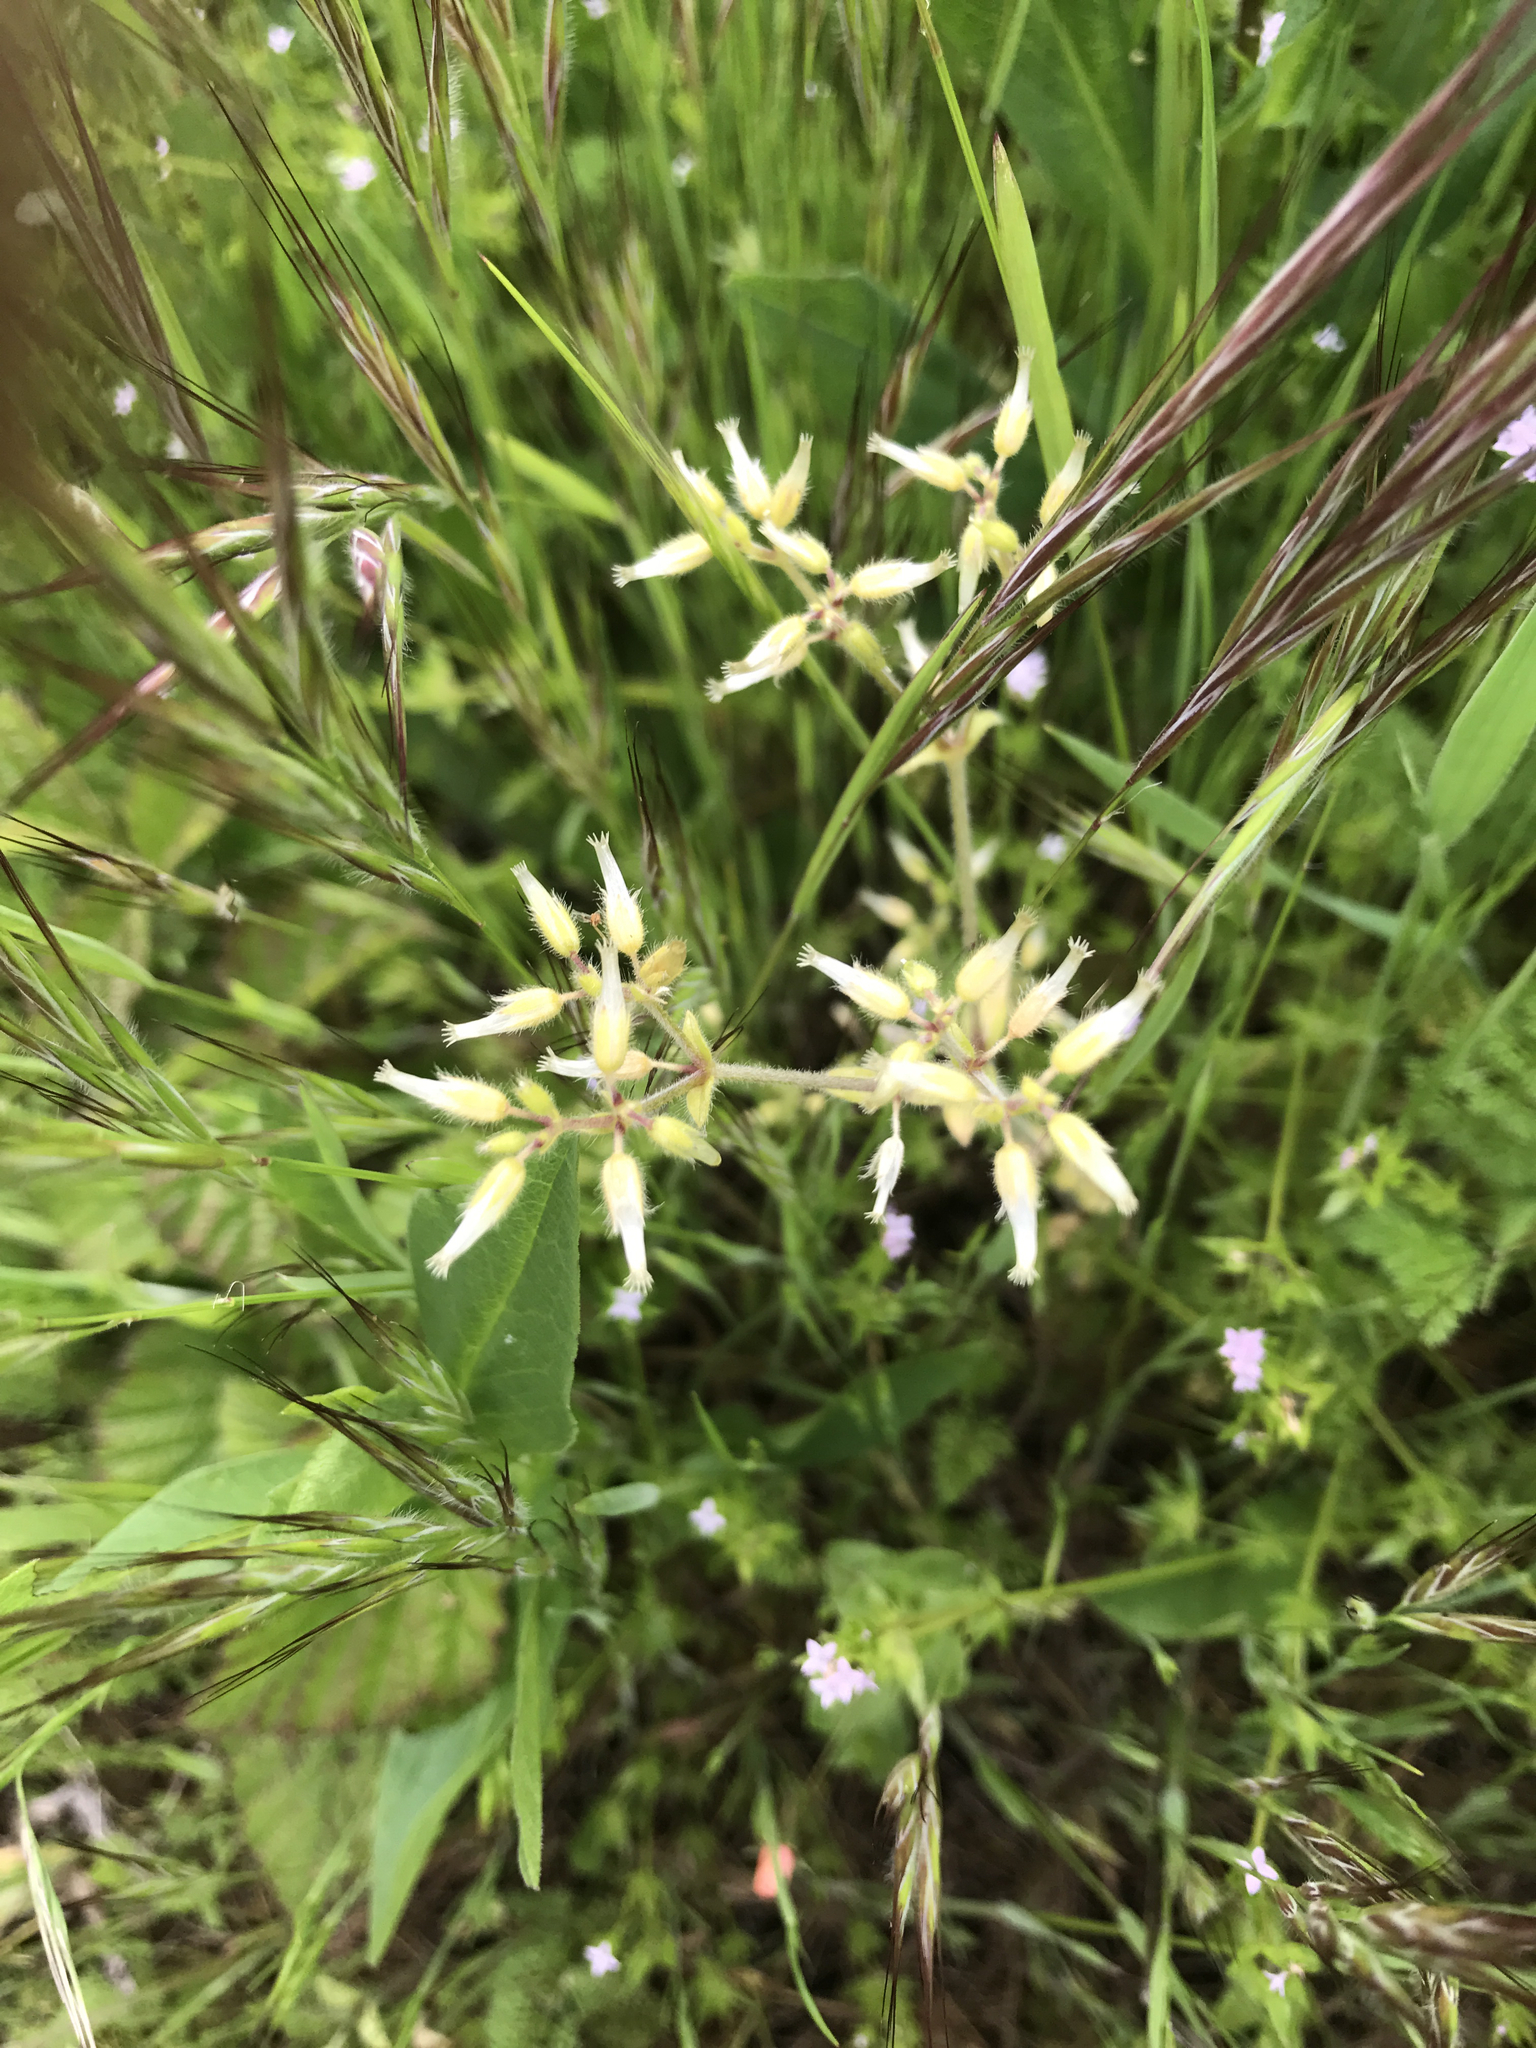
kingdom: Plantae
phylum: Tracheophyta
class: Magnoliopsida
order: Caryophyllales
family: Caryophyllaceae
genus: Cerastium
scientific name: Cerastium glomeratum
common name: Sticky chickweed
